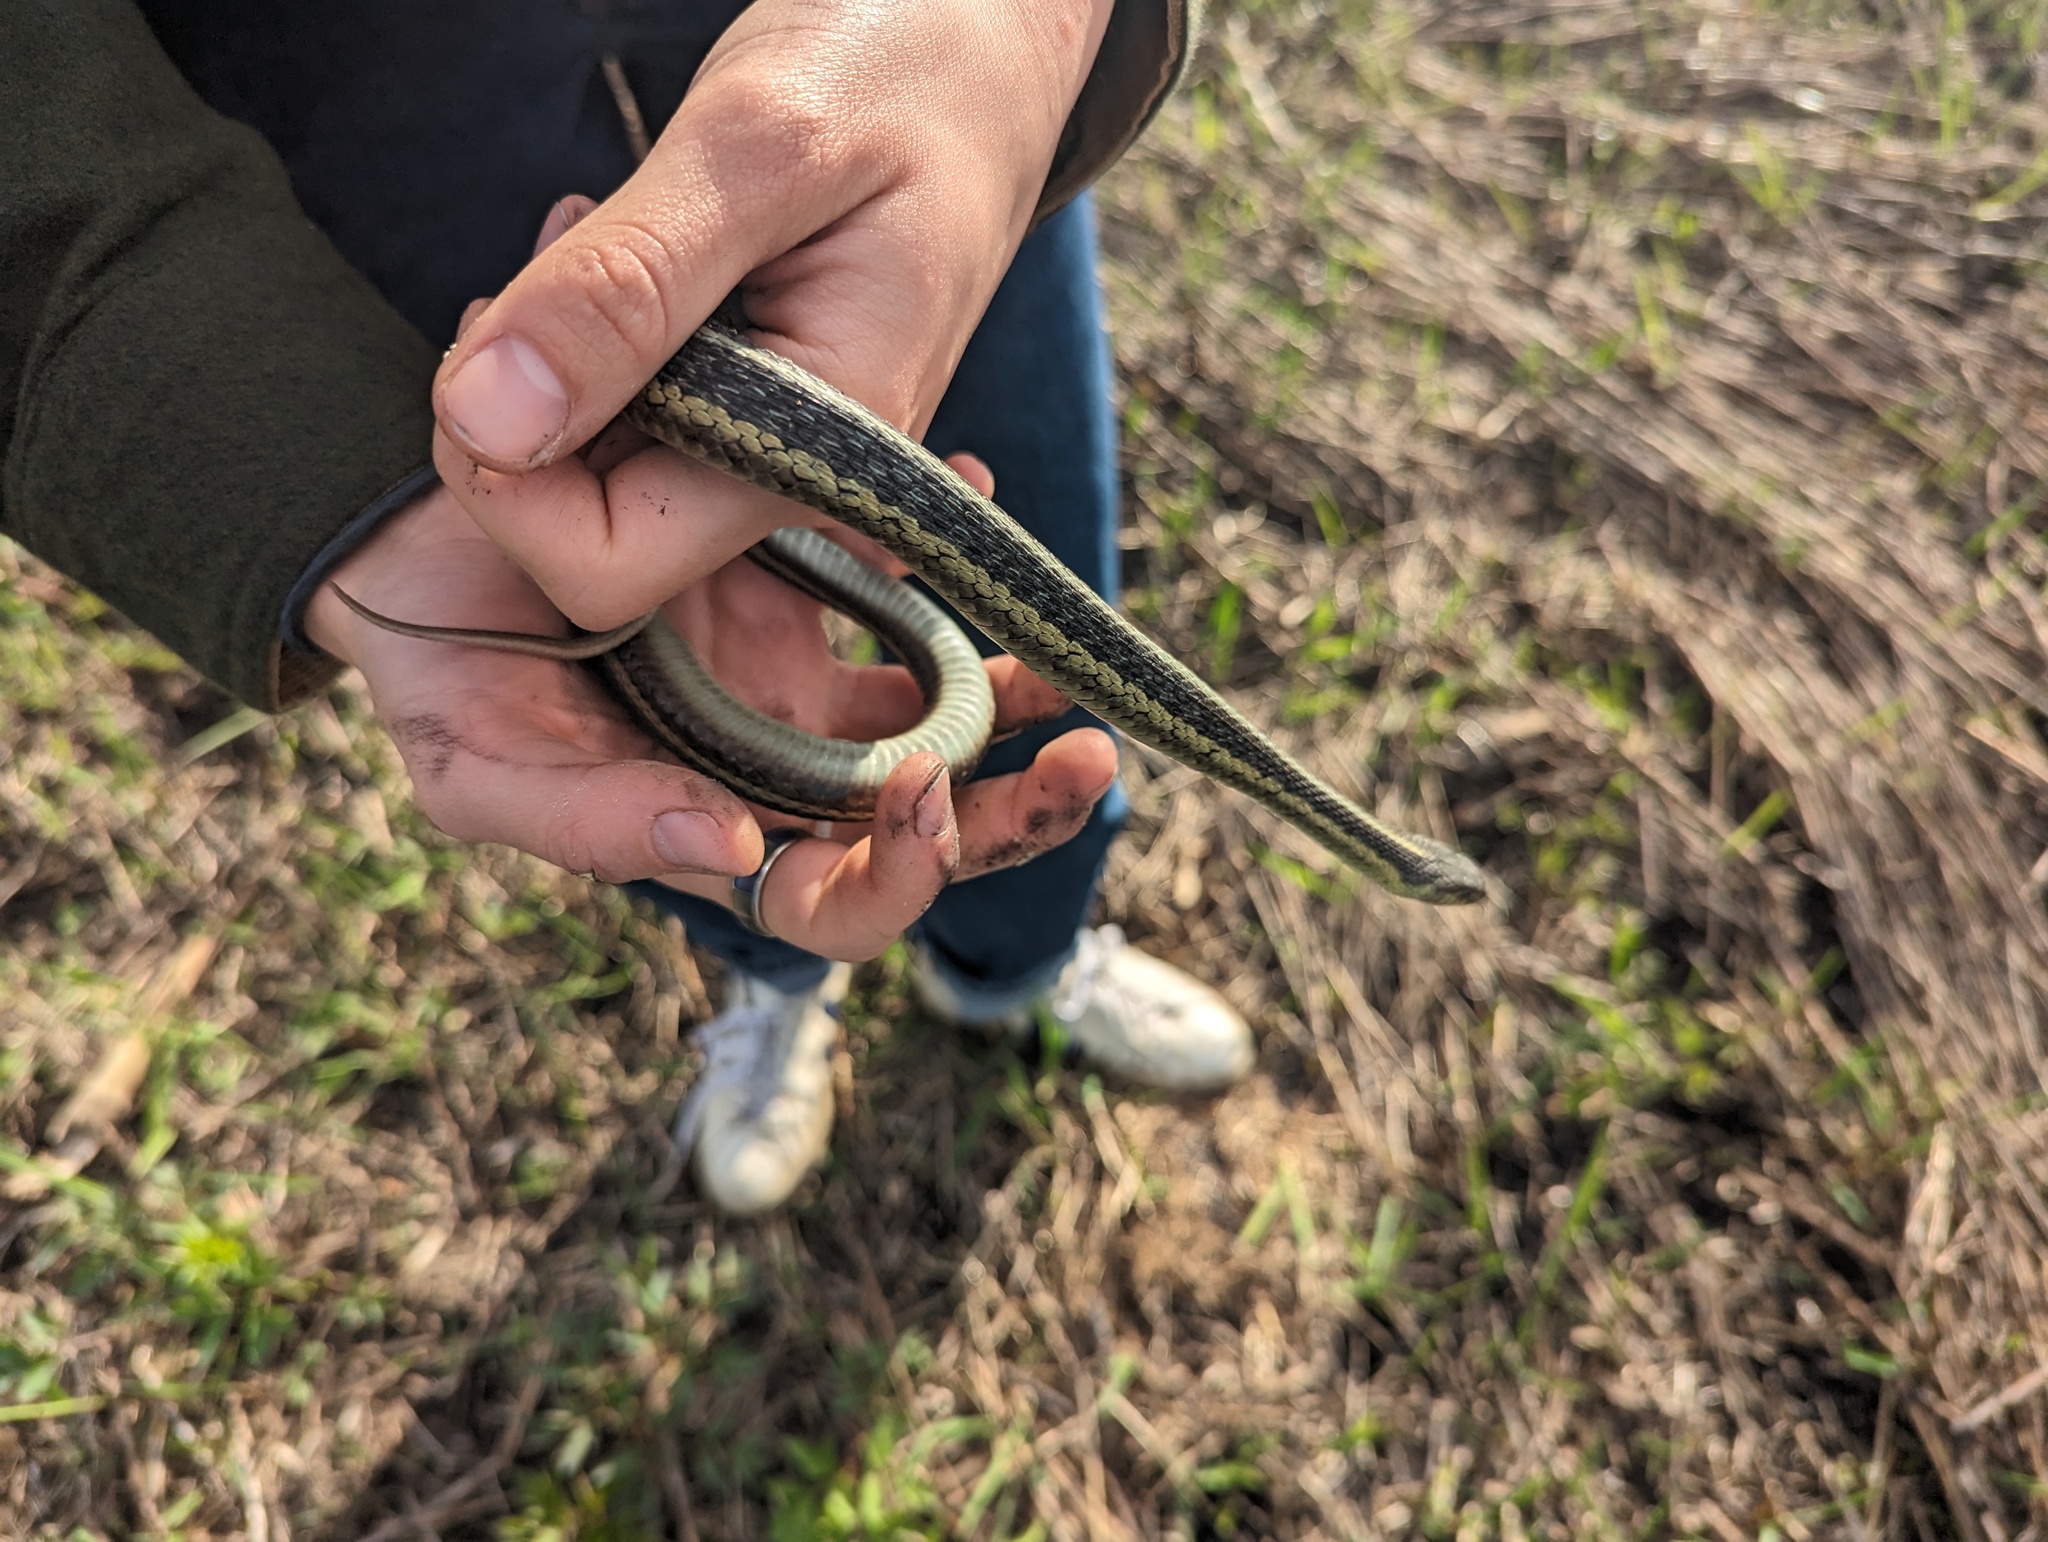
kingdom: Animalia
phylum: Chordata
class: Squamata
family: Colubridae
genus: Thamnophis
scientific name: Thamnophis sirtalis
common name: Common garter snake
